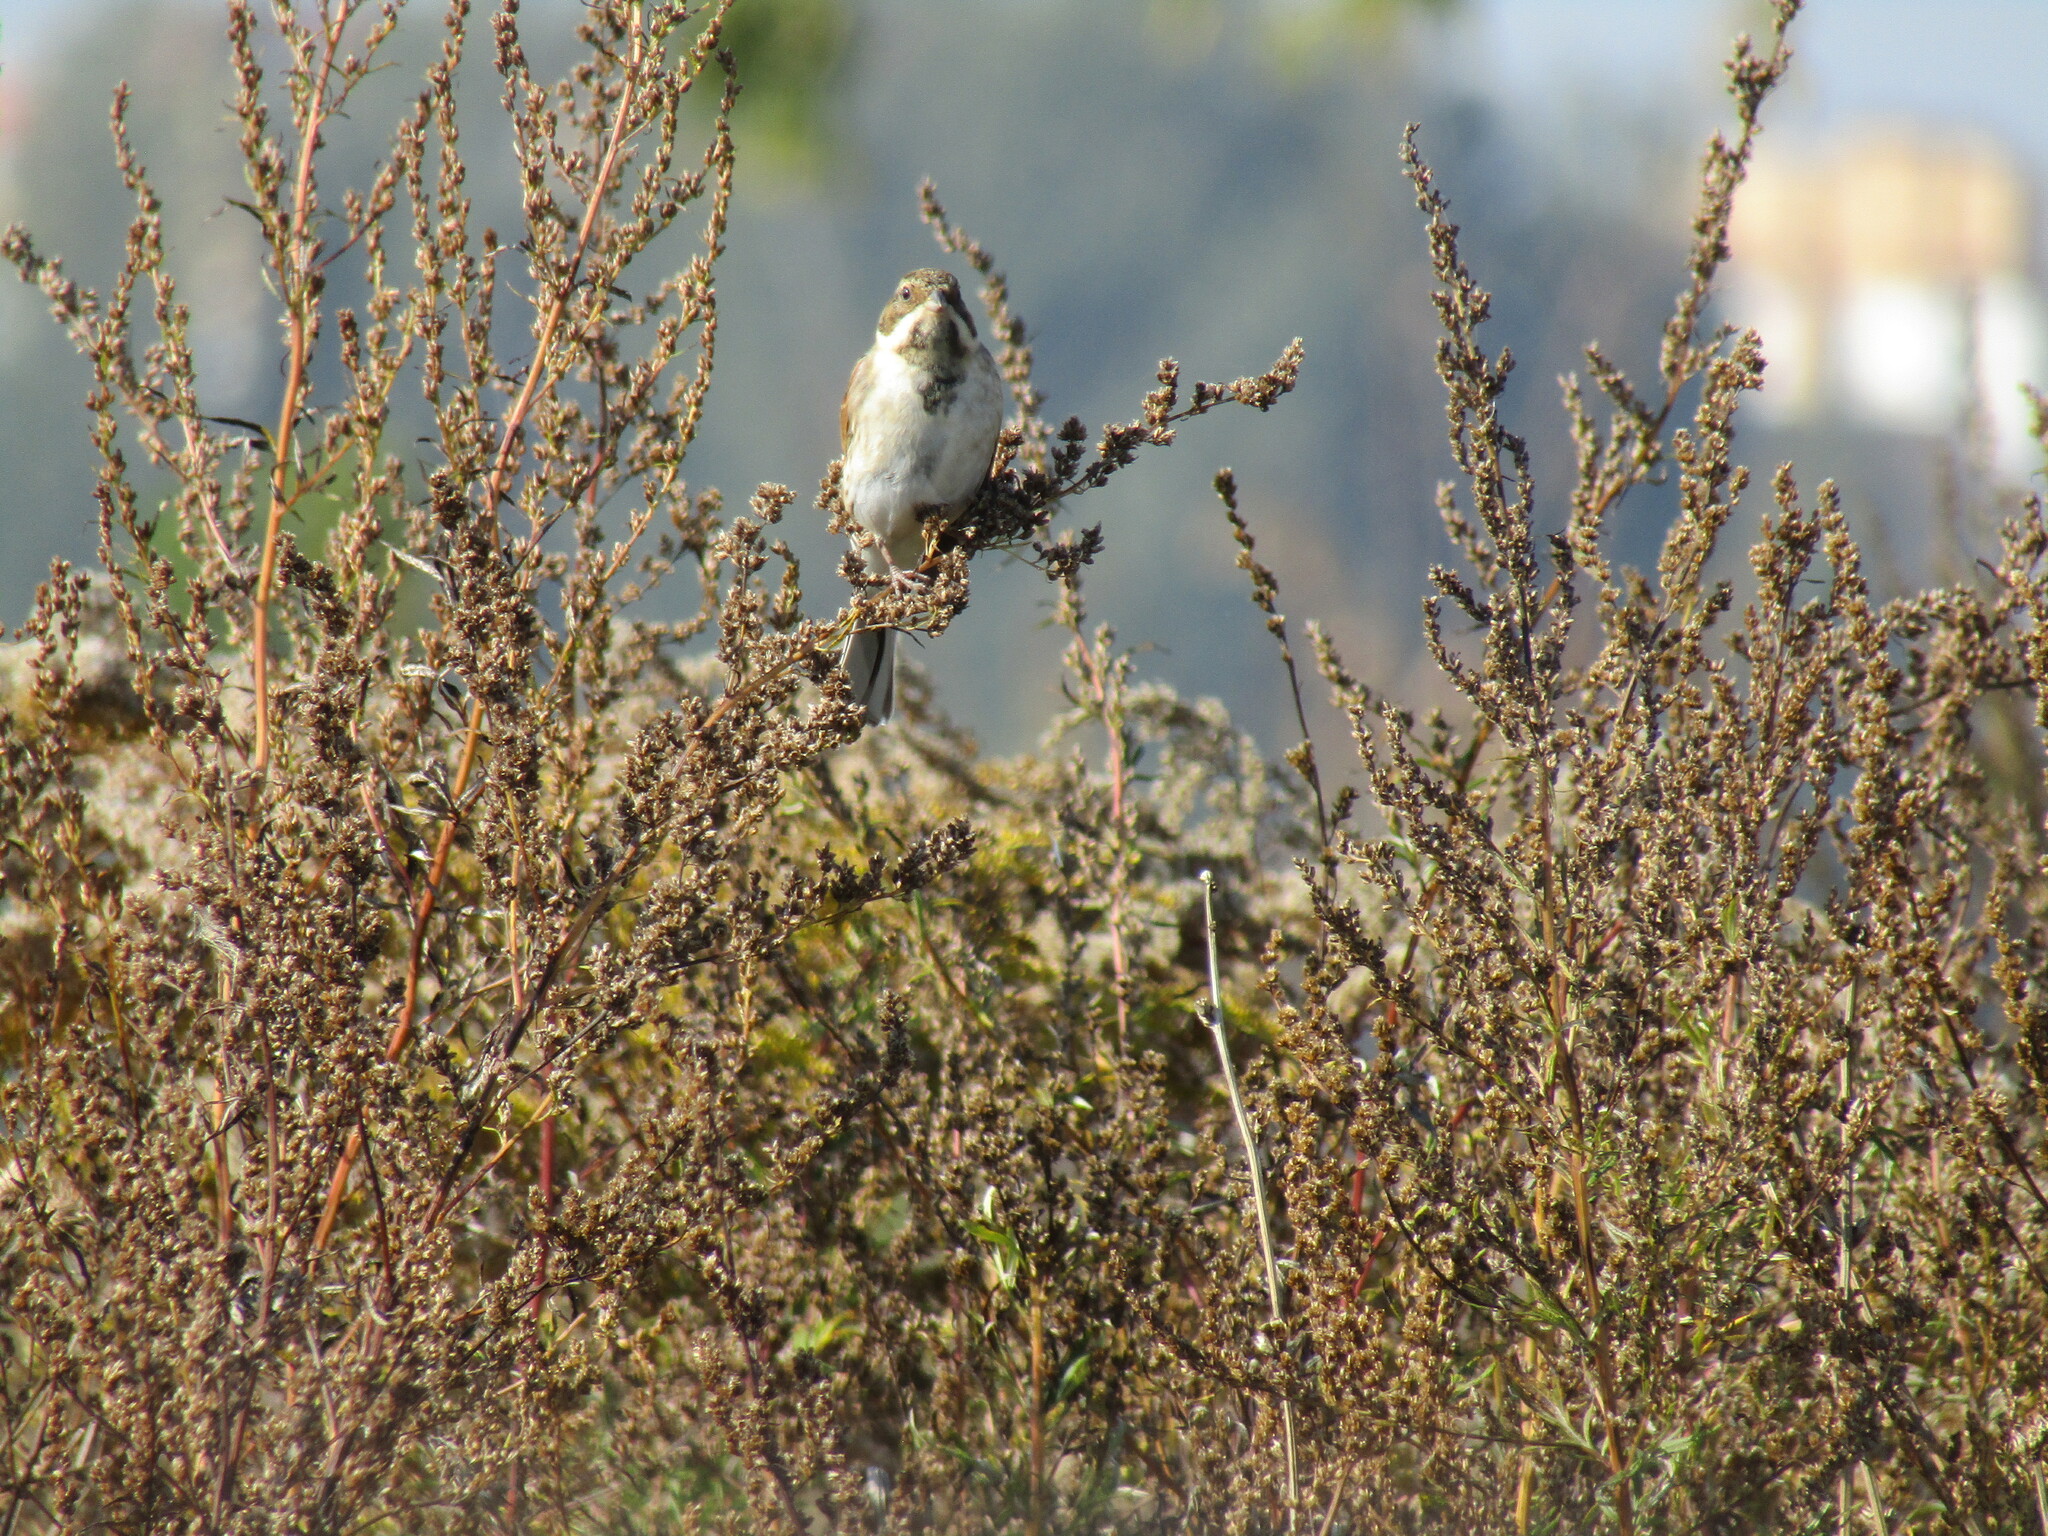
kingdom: Animalia
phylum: Chordata
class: Aves
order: Passeriformes
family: Emberizidae
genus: Emberiza
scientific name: Emberiza schoeniclus
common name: Reed bunting
